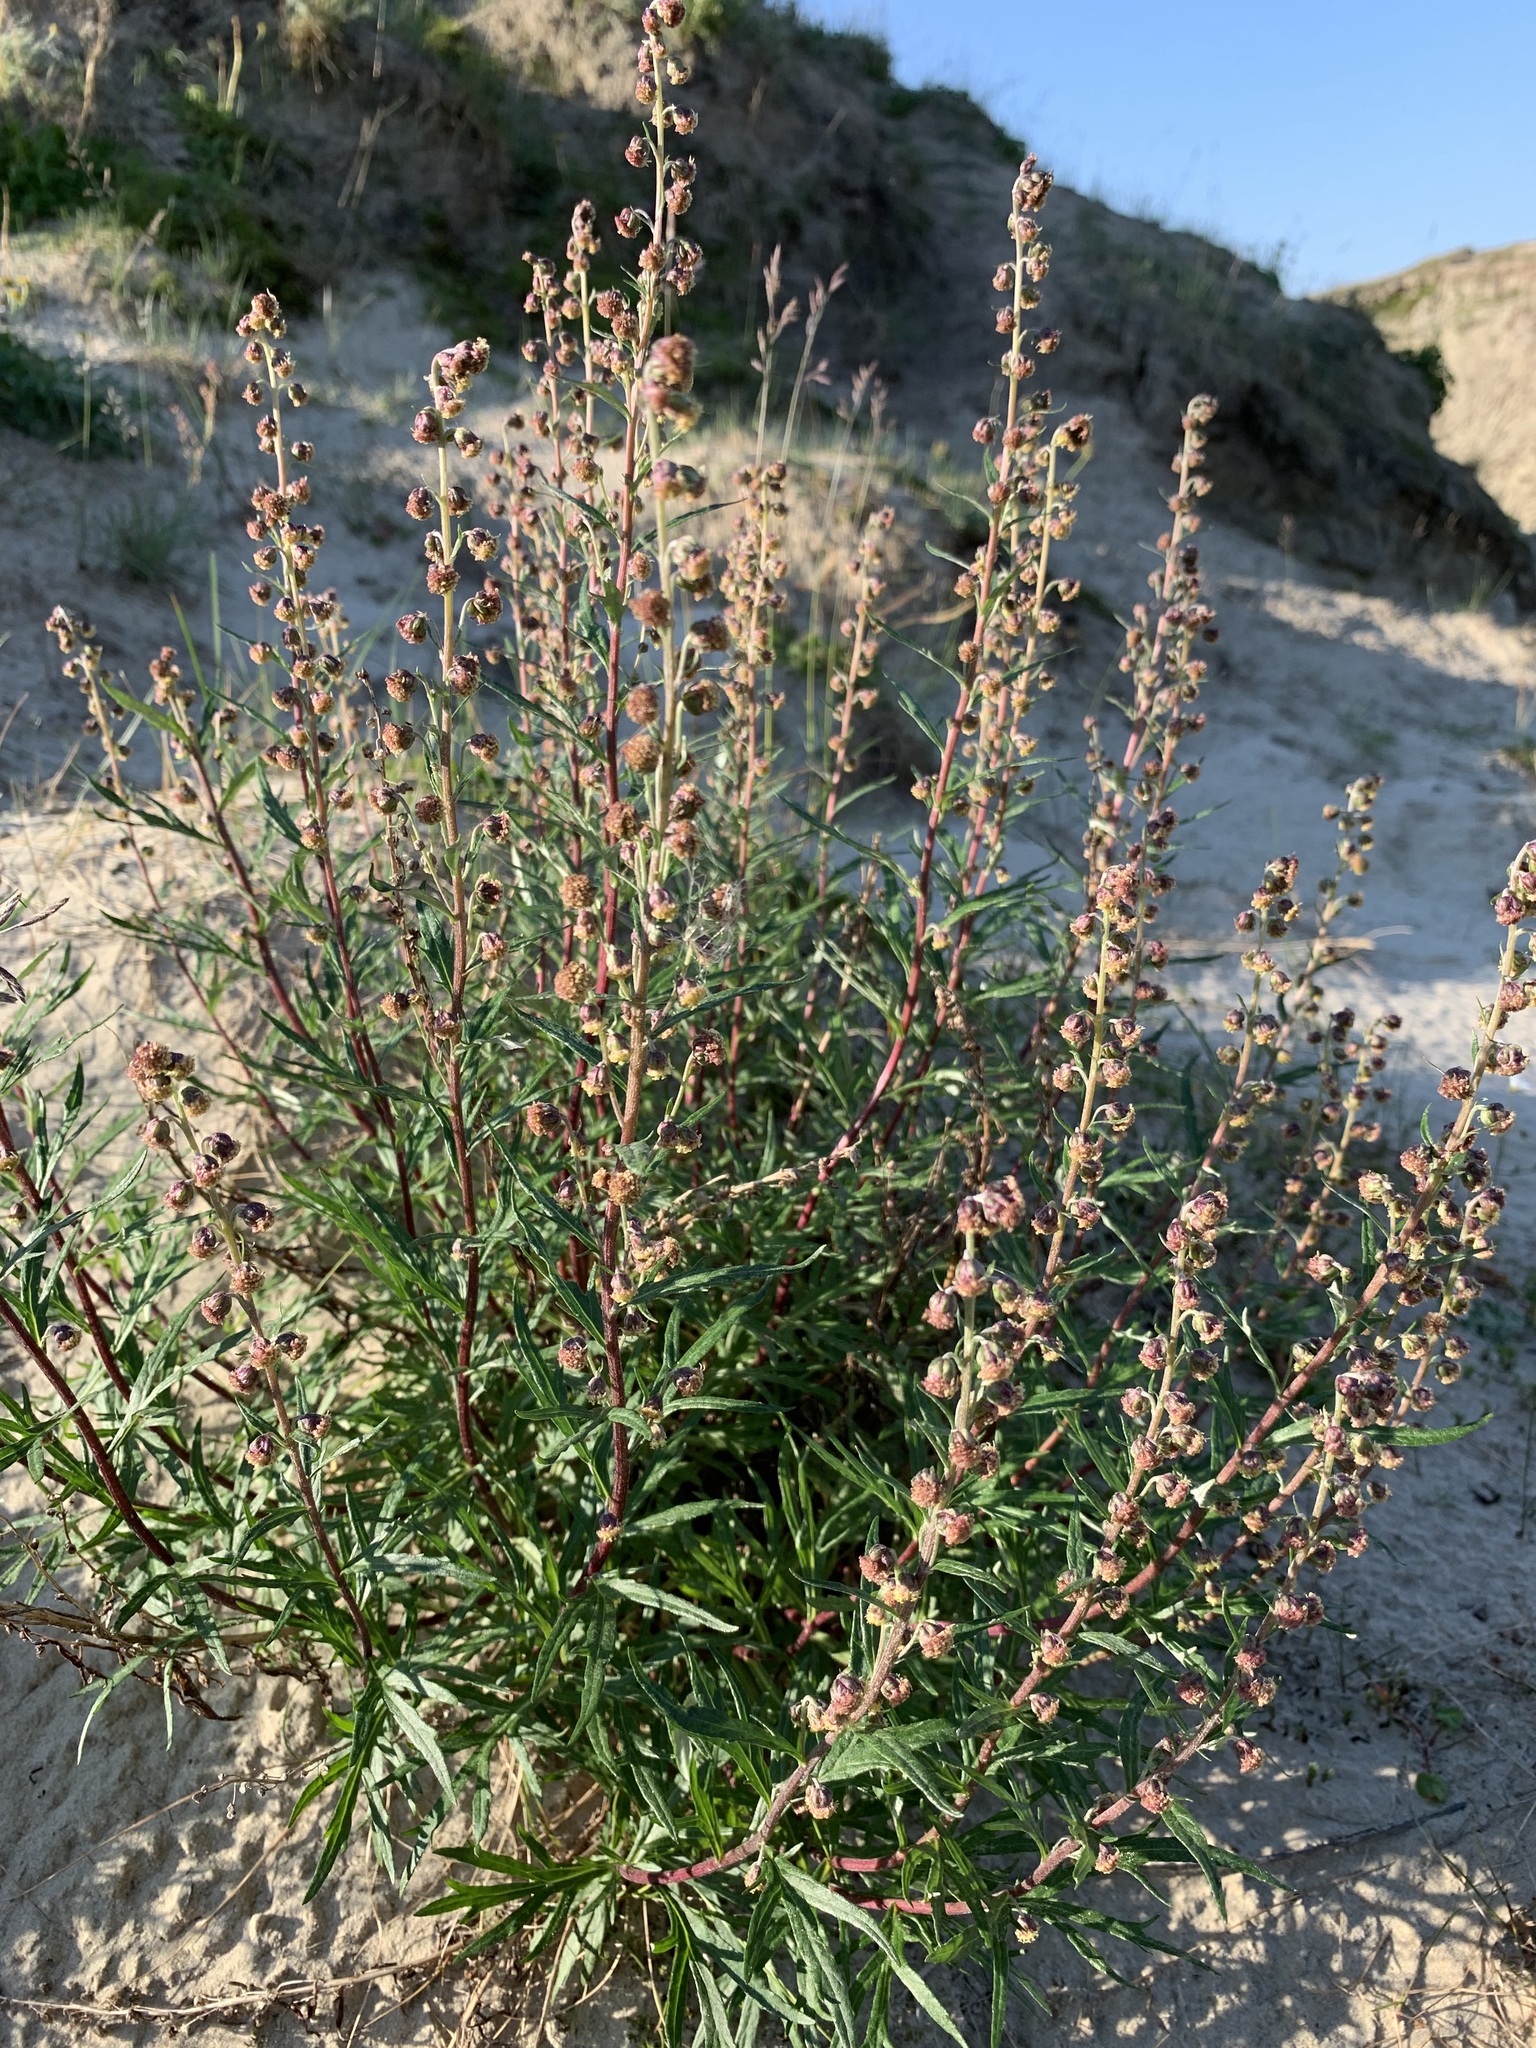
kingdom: Plantae
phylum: Tracheophyta
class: Magnoliopsida
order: Asterales
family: Asteraceae
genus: Artemisia
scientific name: Artemisia tilesii
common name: Aleutian mugwort
